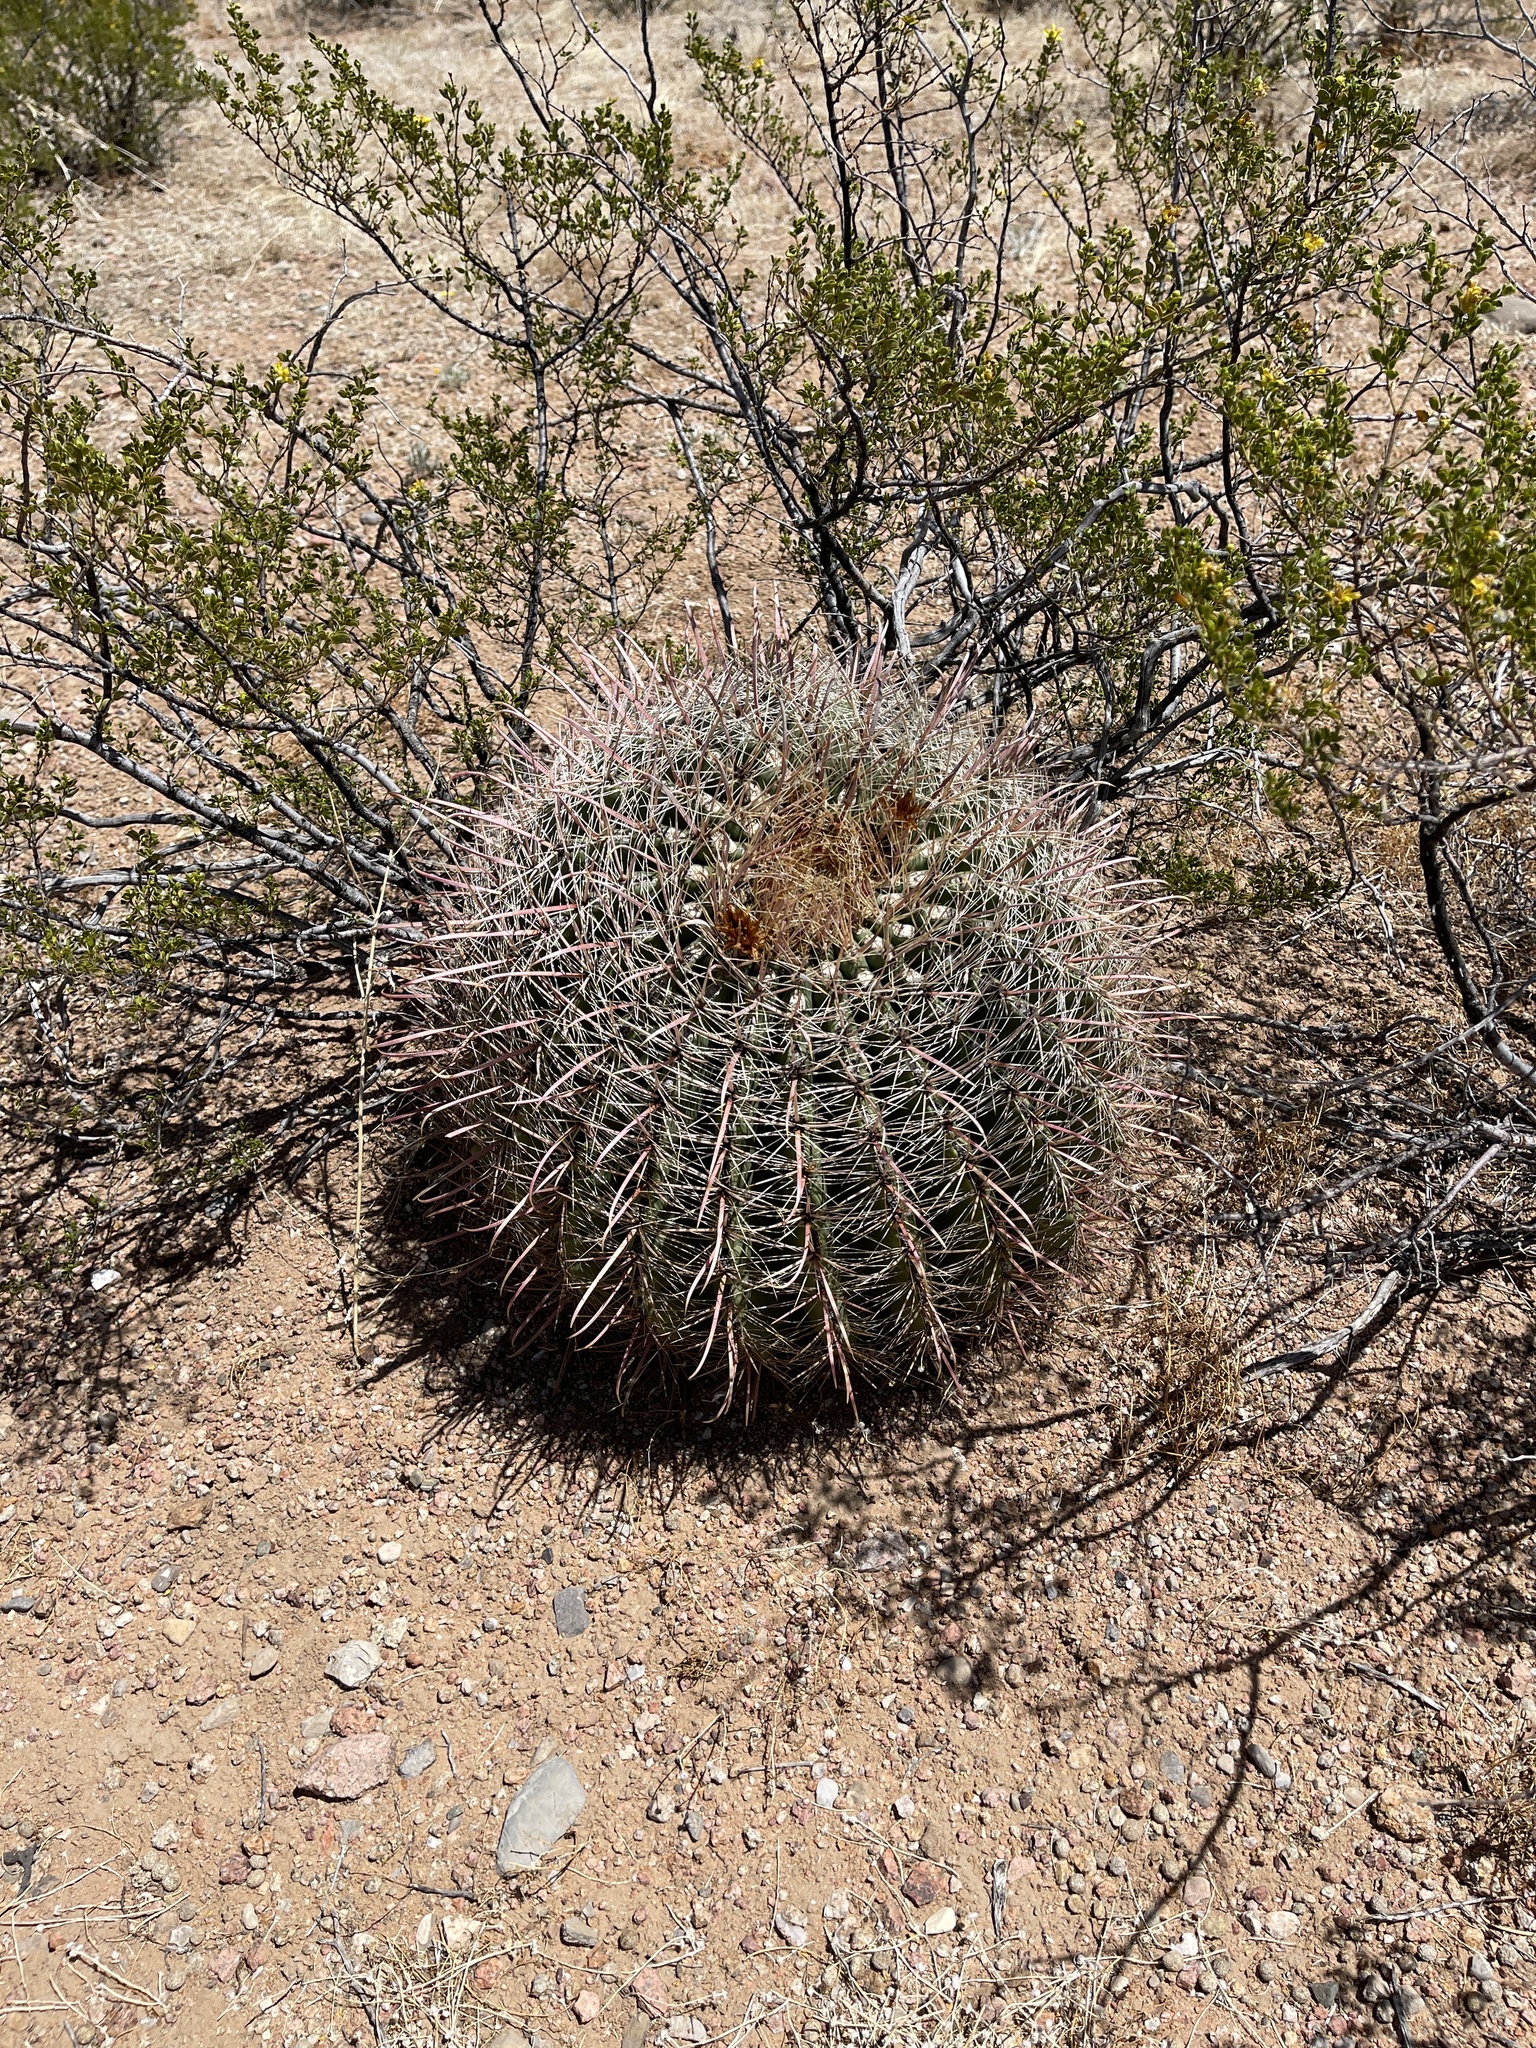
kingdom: Plantae
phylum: Tracheophyta
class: Magnoliopsida
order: Caryophyllales
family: Cactaceae
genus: Ferocactus
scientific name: Ferocactus wislizeni
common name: Candy barrel cactus
